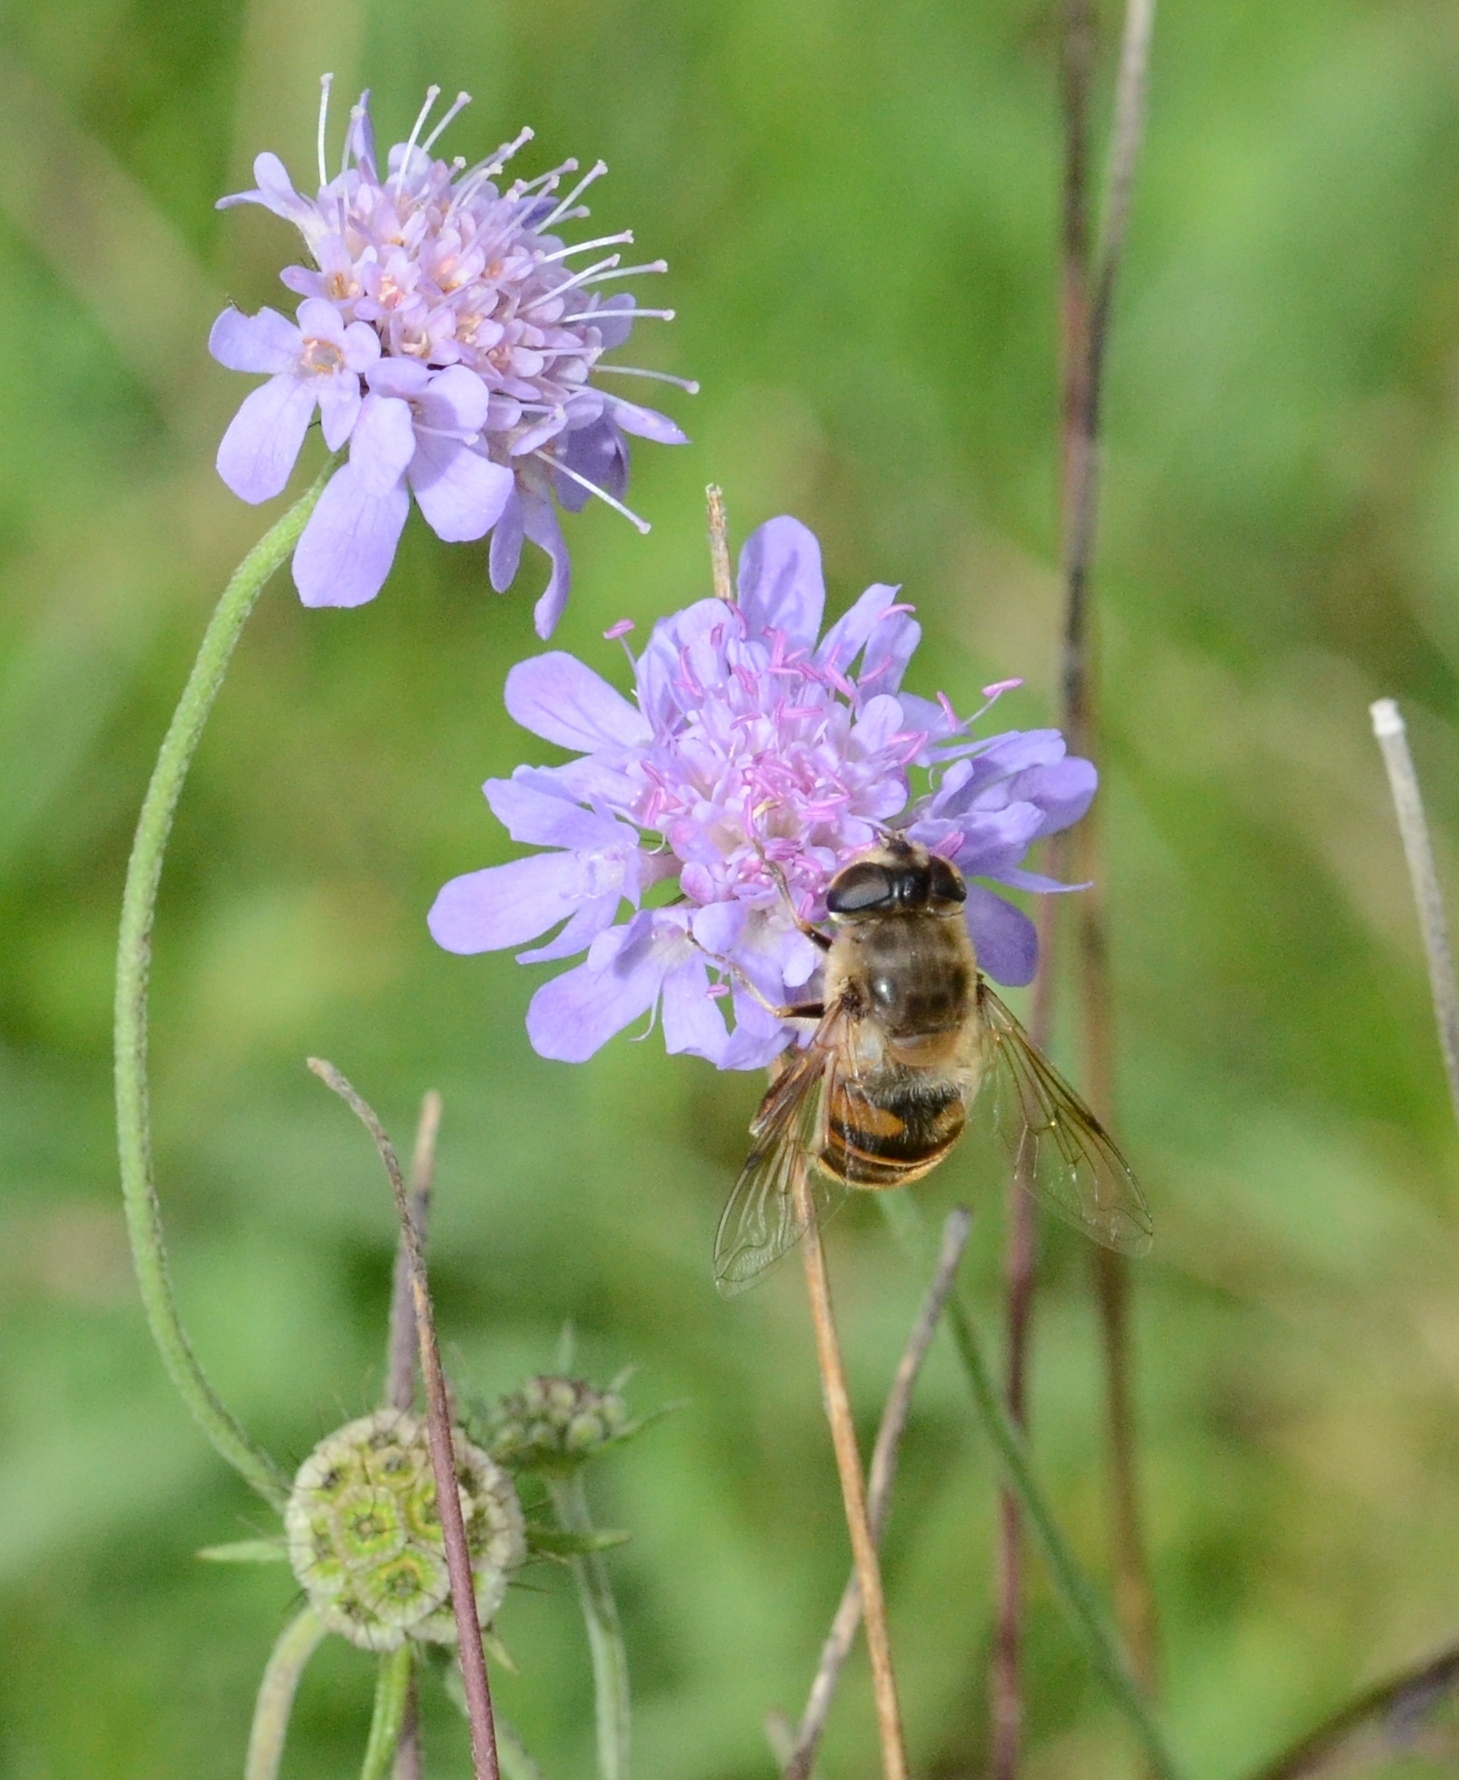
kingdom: Animalia
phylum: Arthropoda
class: Insecta
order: Diptera
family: Syrphidae
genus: Eristalis
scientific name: Eristalis tenax
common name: Drone fly
